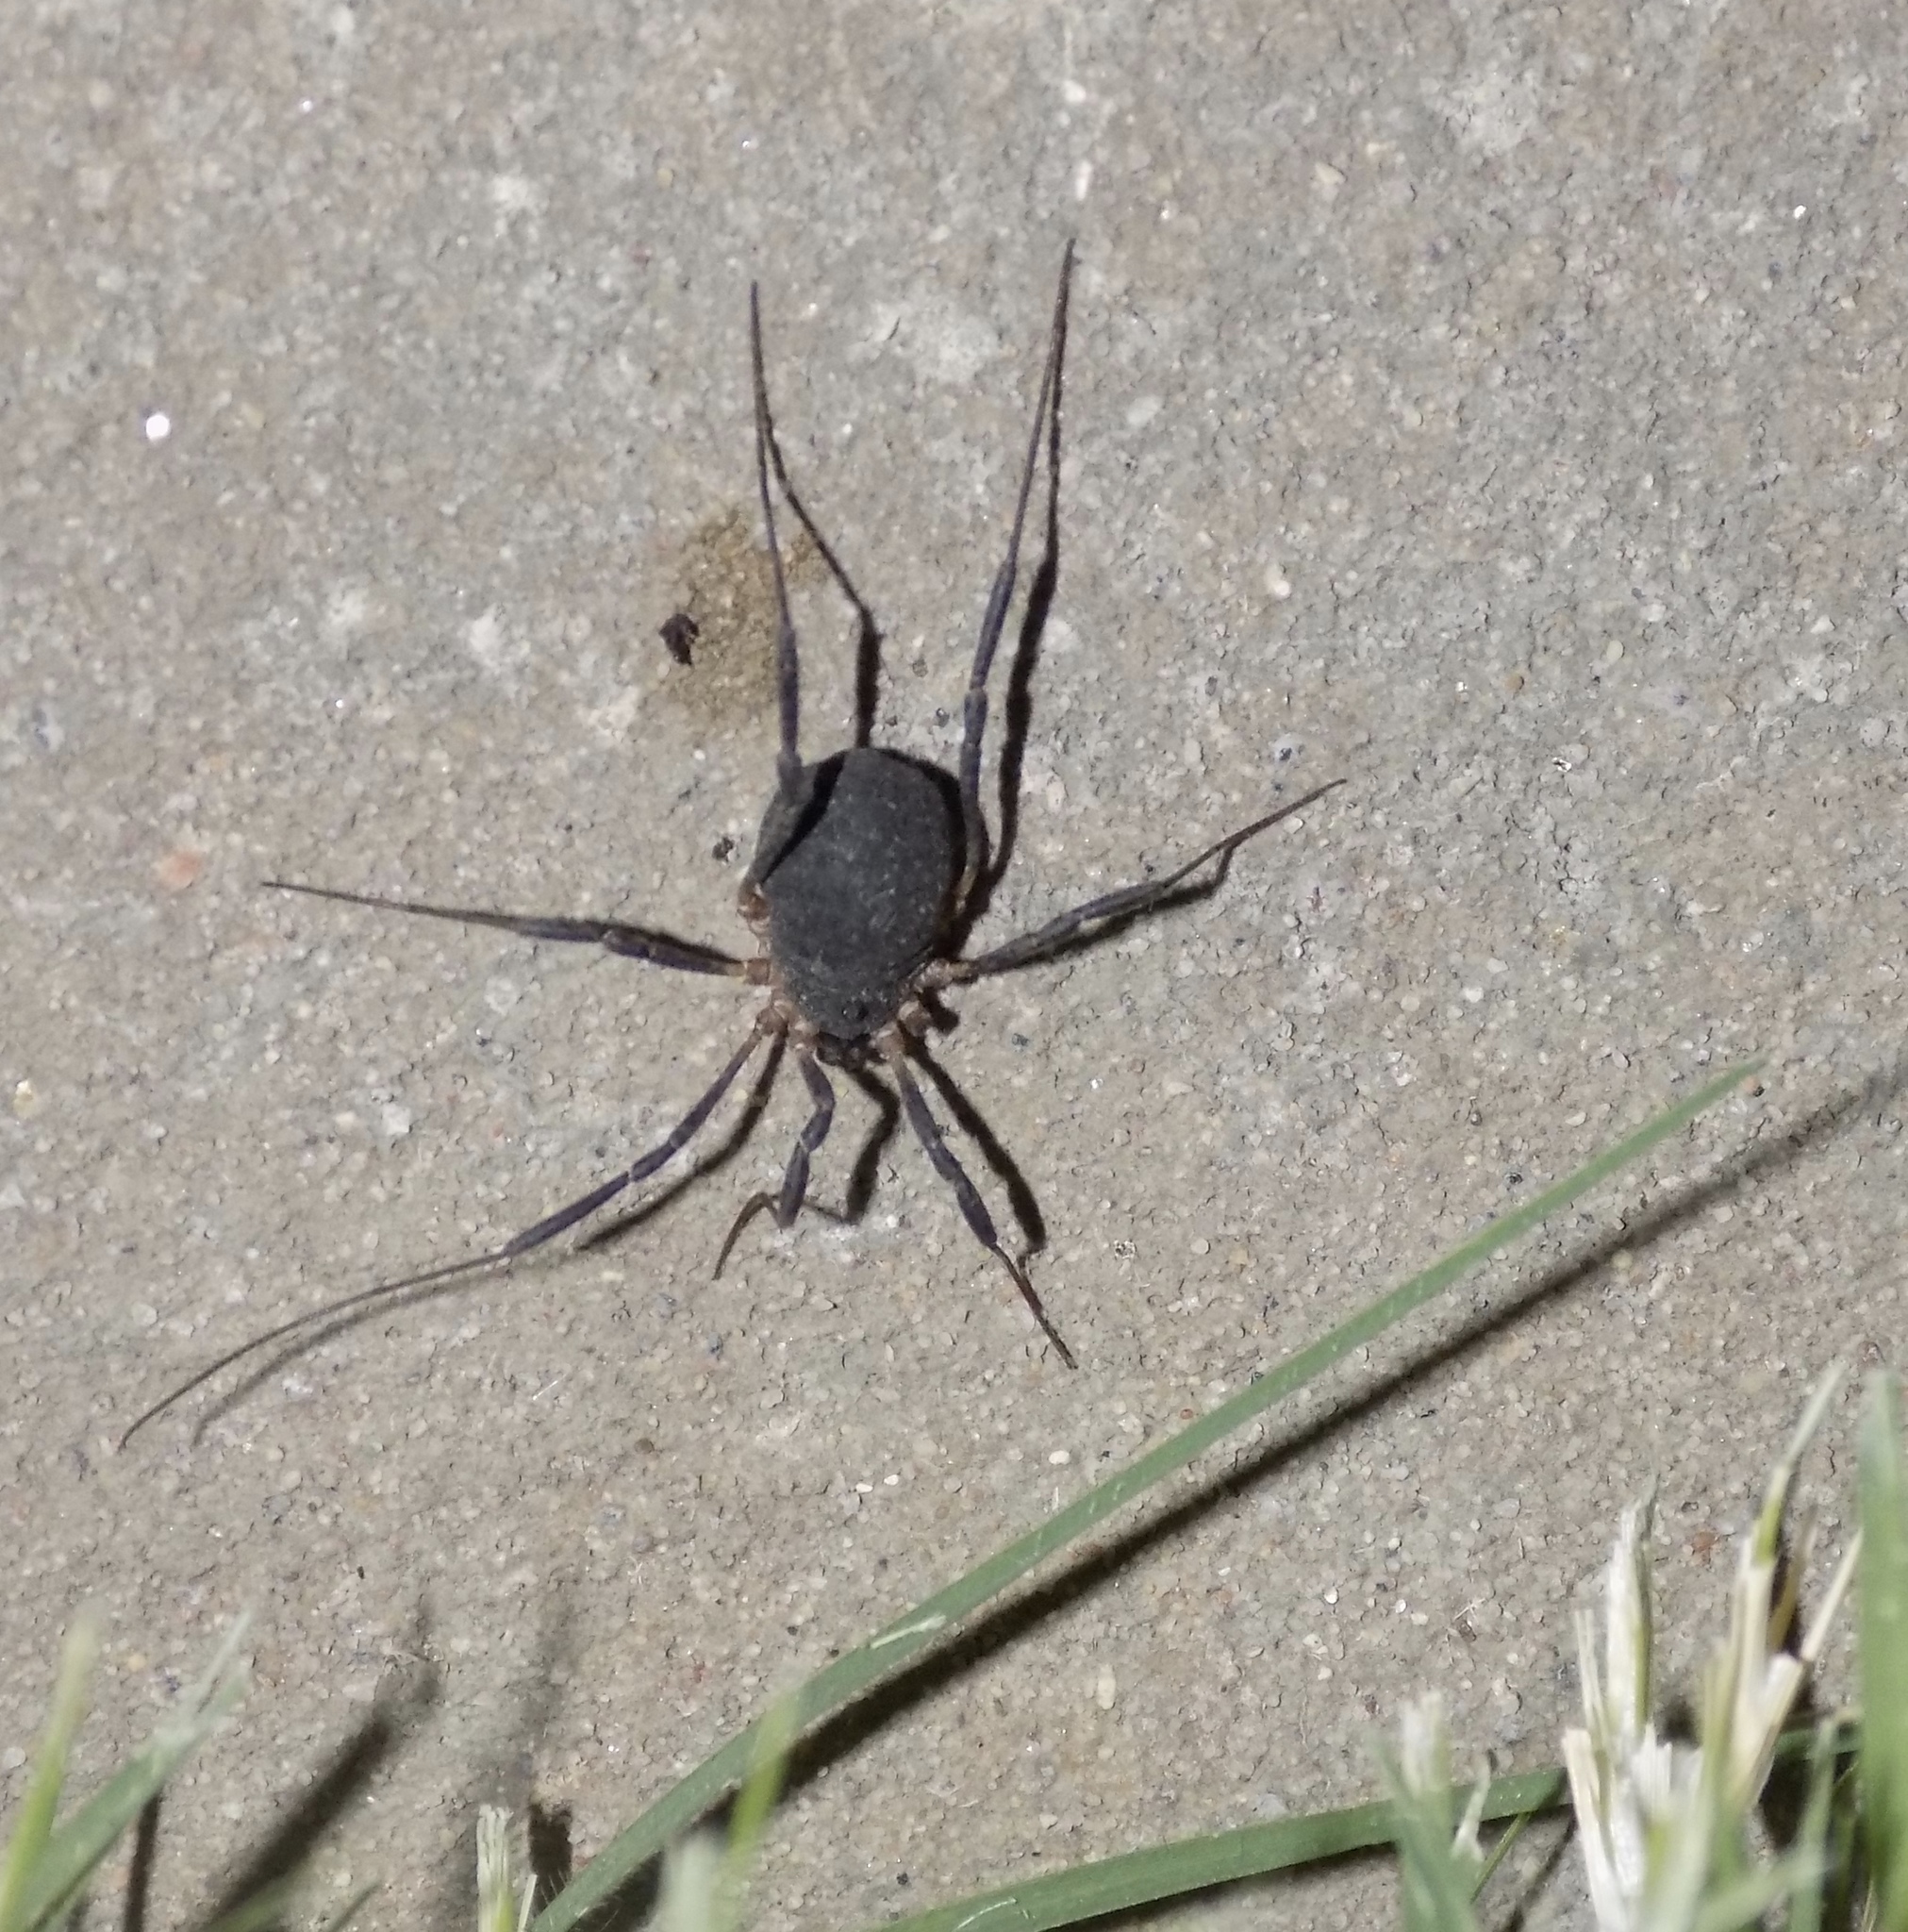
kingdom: Animalia
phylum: Arthropoda
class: Arachnida
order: Opiliones
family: Sclerosomatidae
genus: Eumesosoma
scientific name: Eumesosoma roeweri
